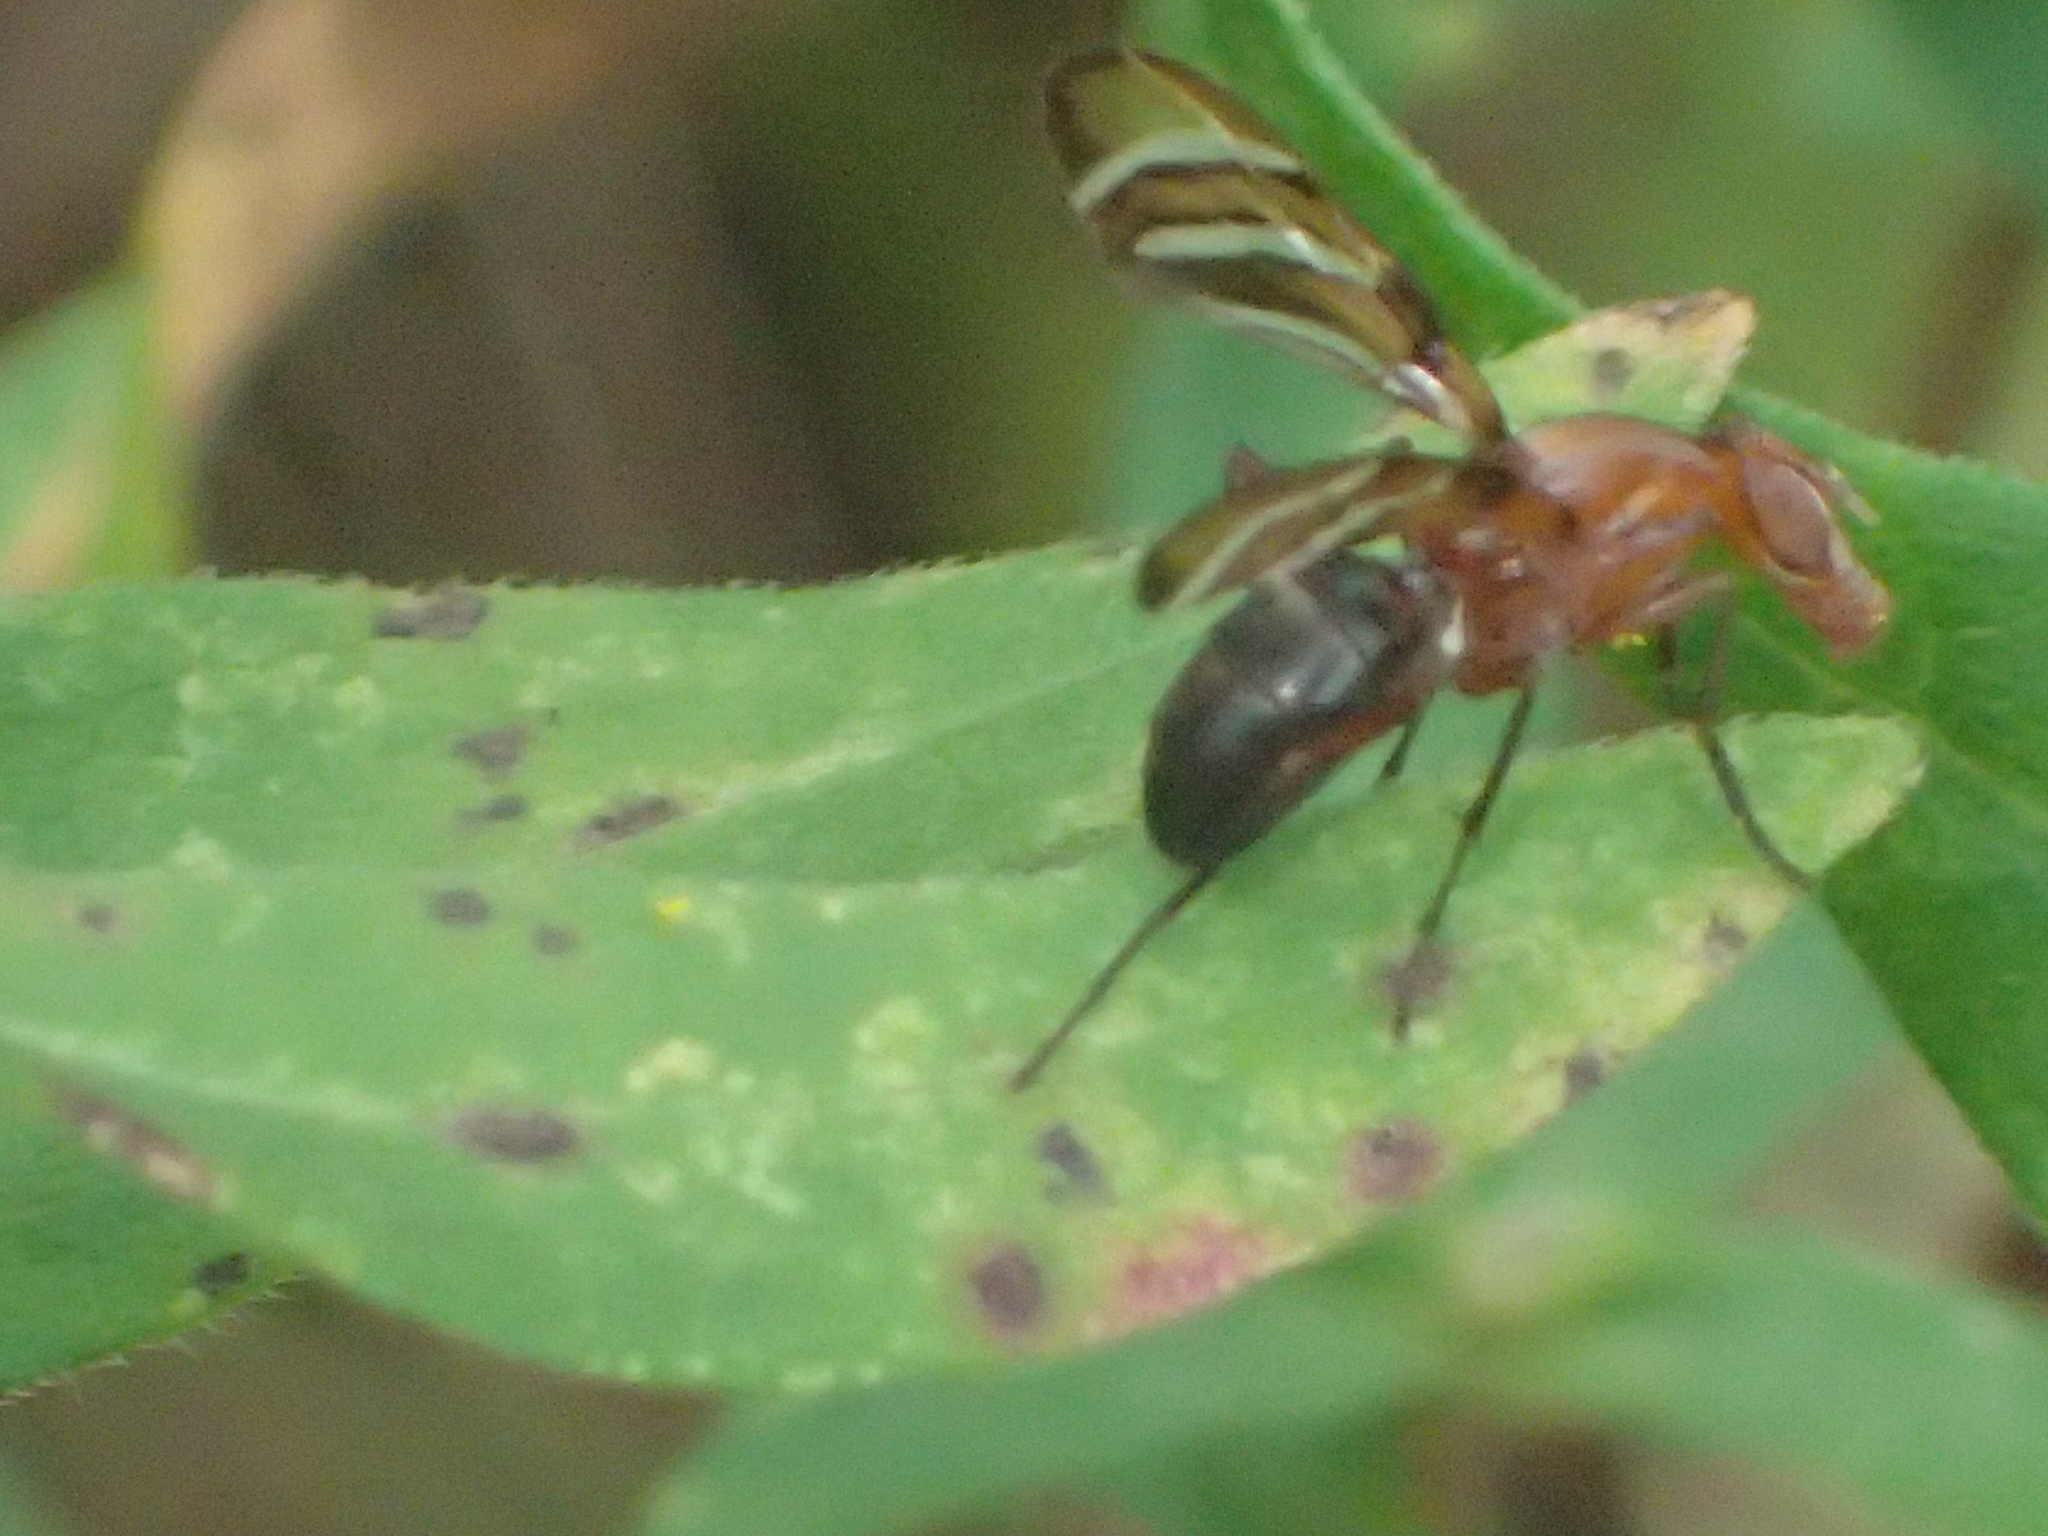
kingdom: Animalia
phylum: Arthropoda
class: Insecta
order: Diptera
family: Ulidiidae
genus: Tritoxa
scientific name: Tritoxa incurva
